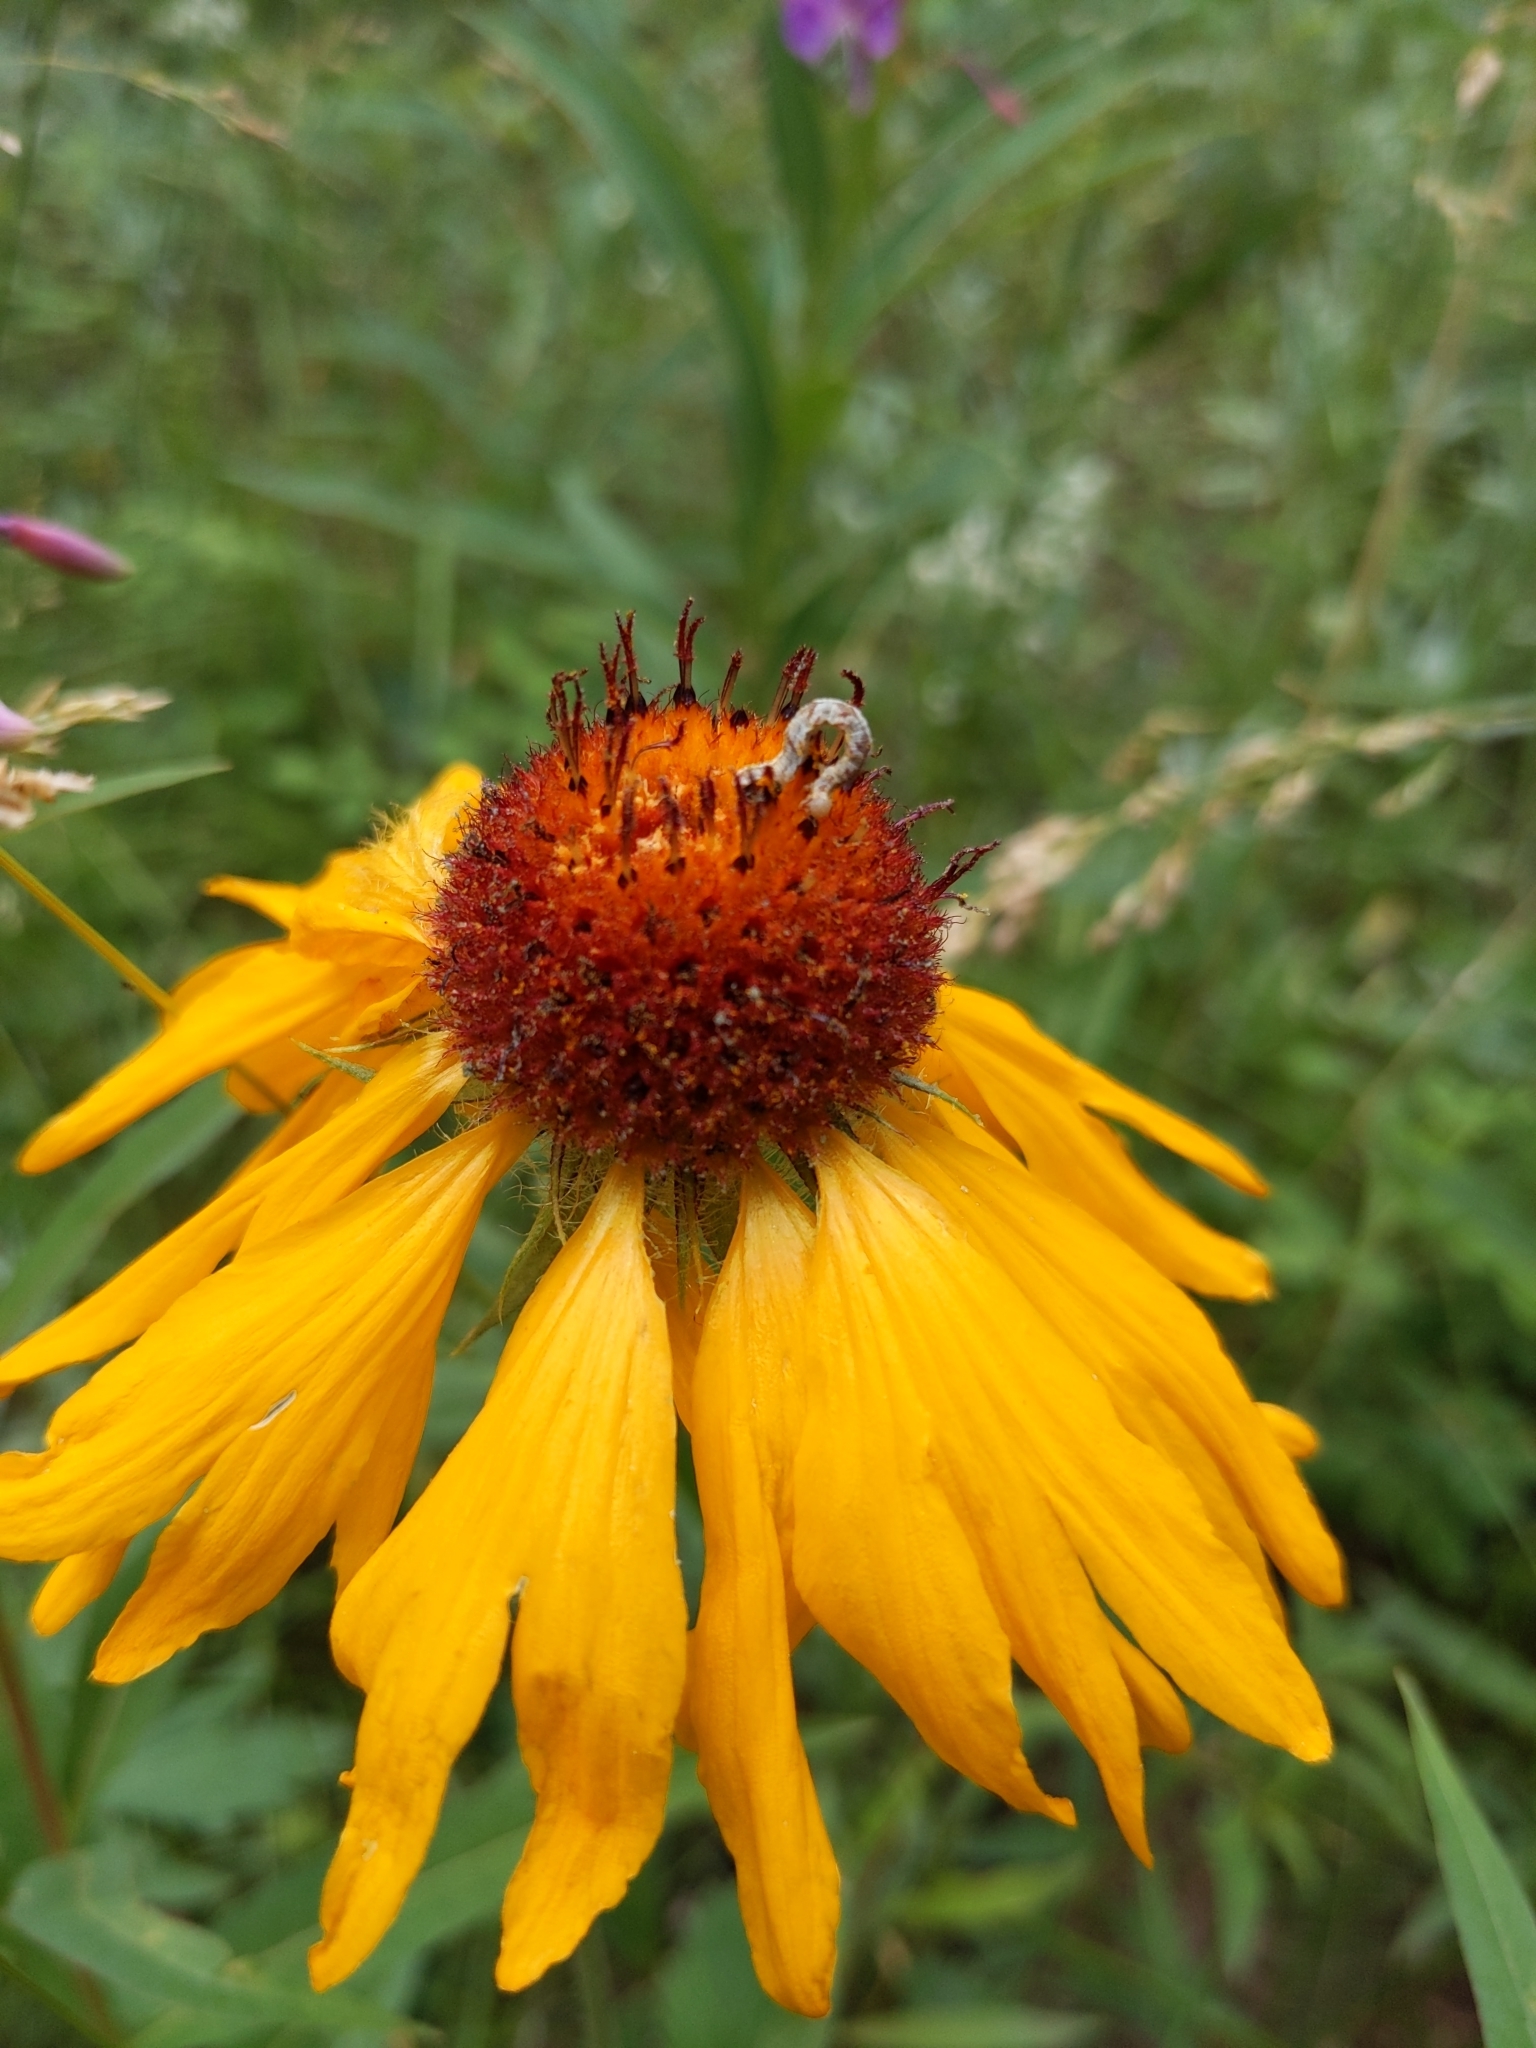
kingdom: Plantae
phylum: Tracheophyta
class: Magnoliopsida
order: Asterales
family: Asteraceae
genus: Gaillardia
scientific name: Gaillardia aristata
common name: Blanket-flower
